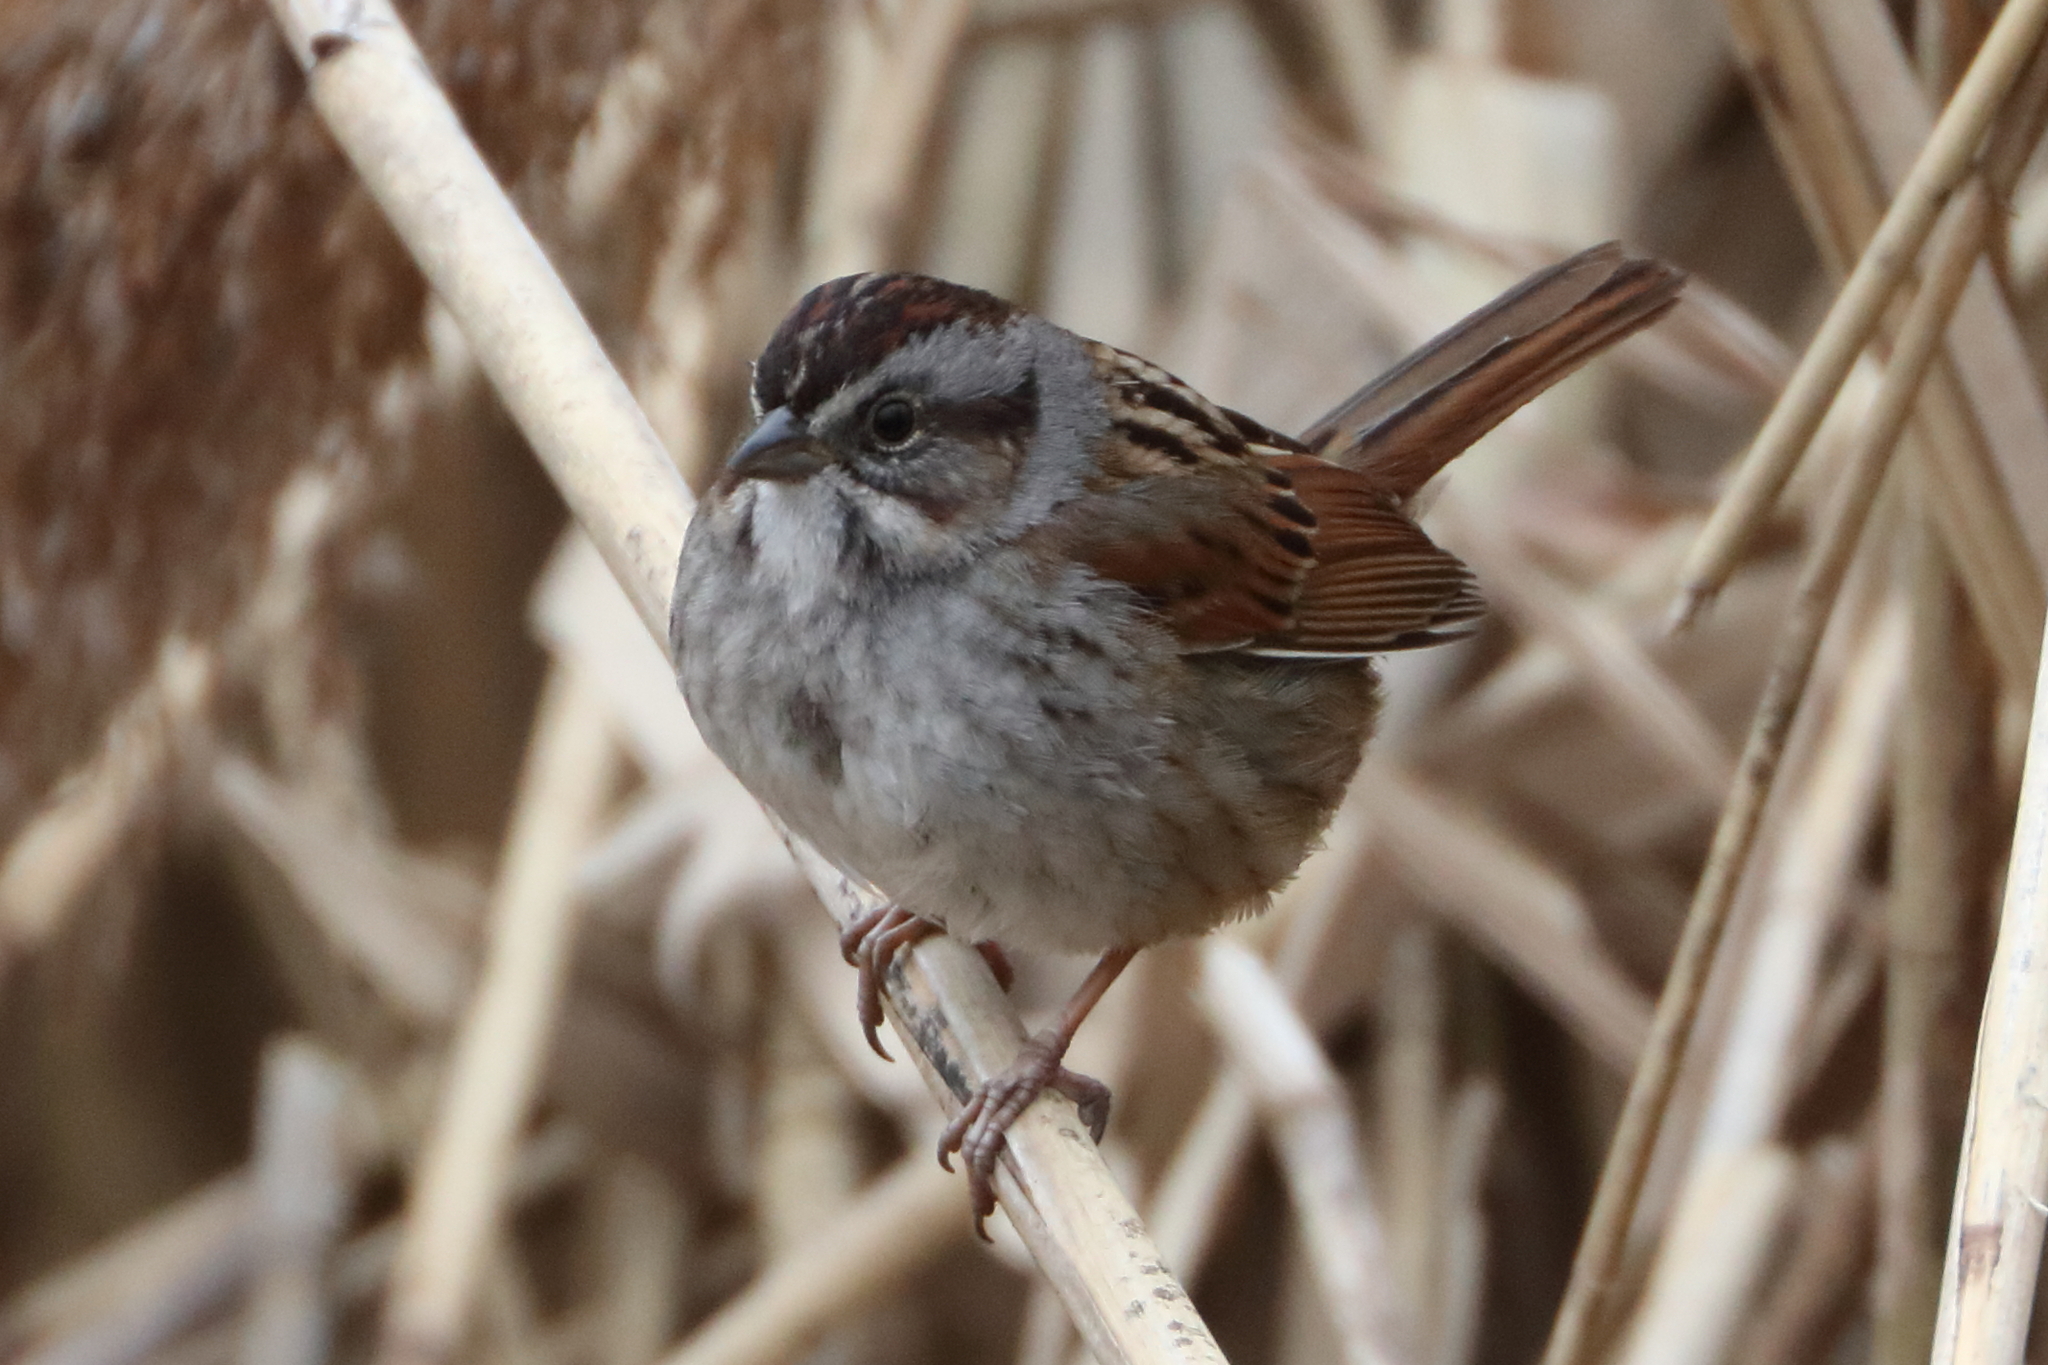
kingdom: Animalia
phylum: Chordata
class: Aves
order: Passeriformes
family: Passerellidae
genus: Melospiza
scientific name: Melospiza georgiana
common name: Swamp sparrow
